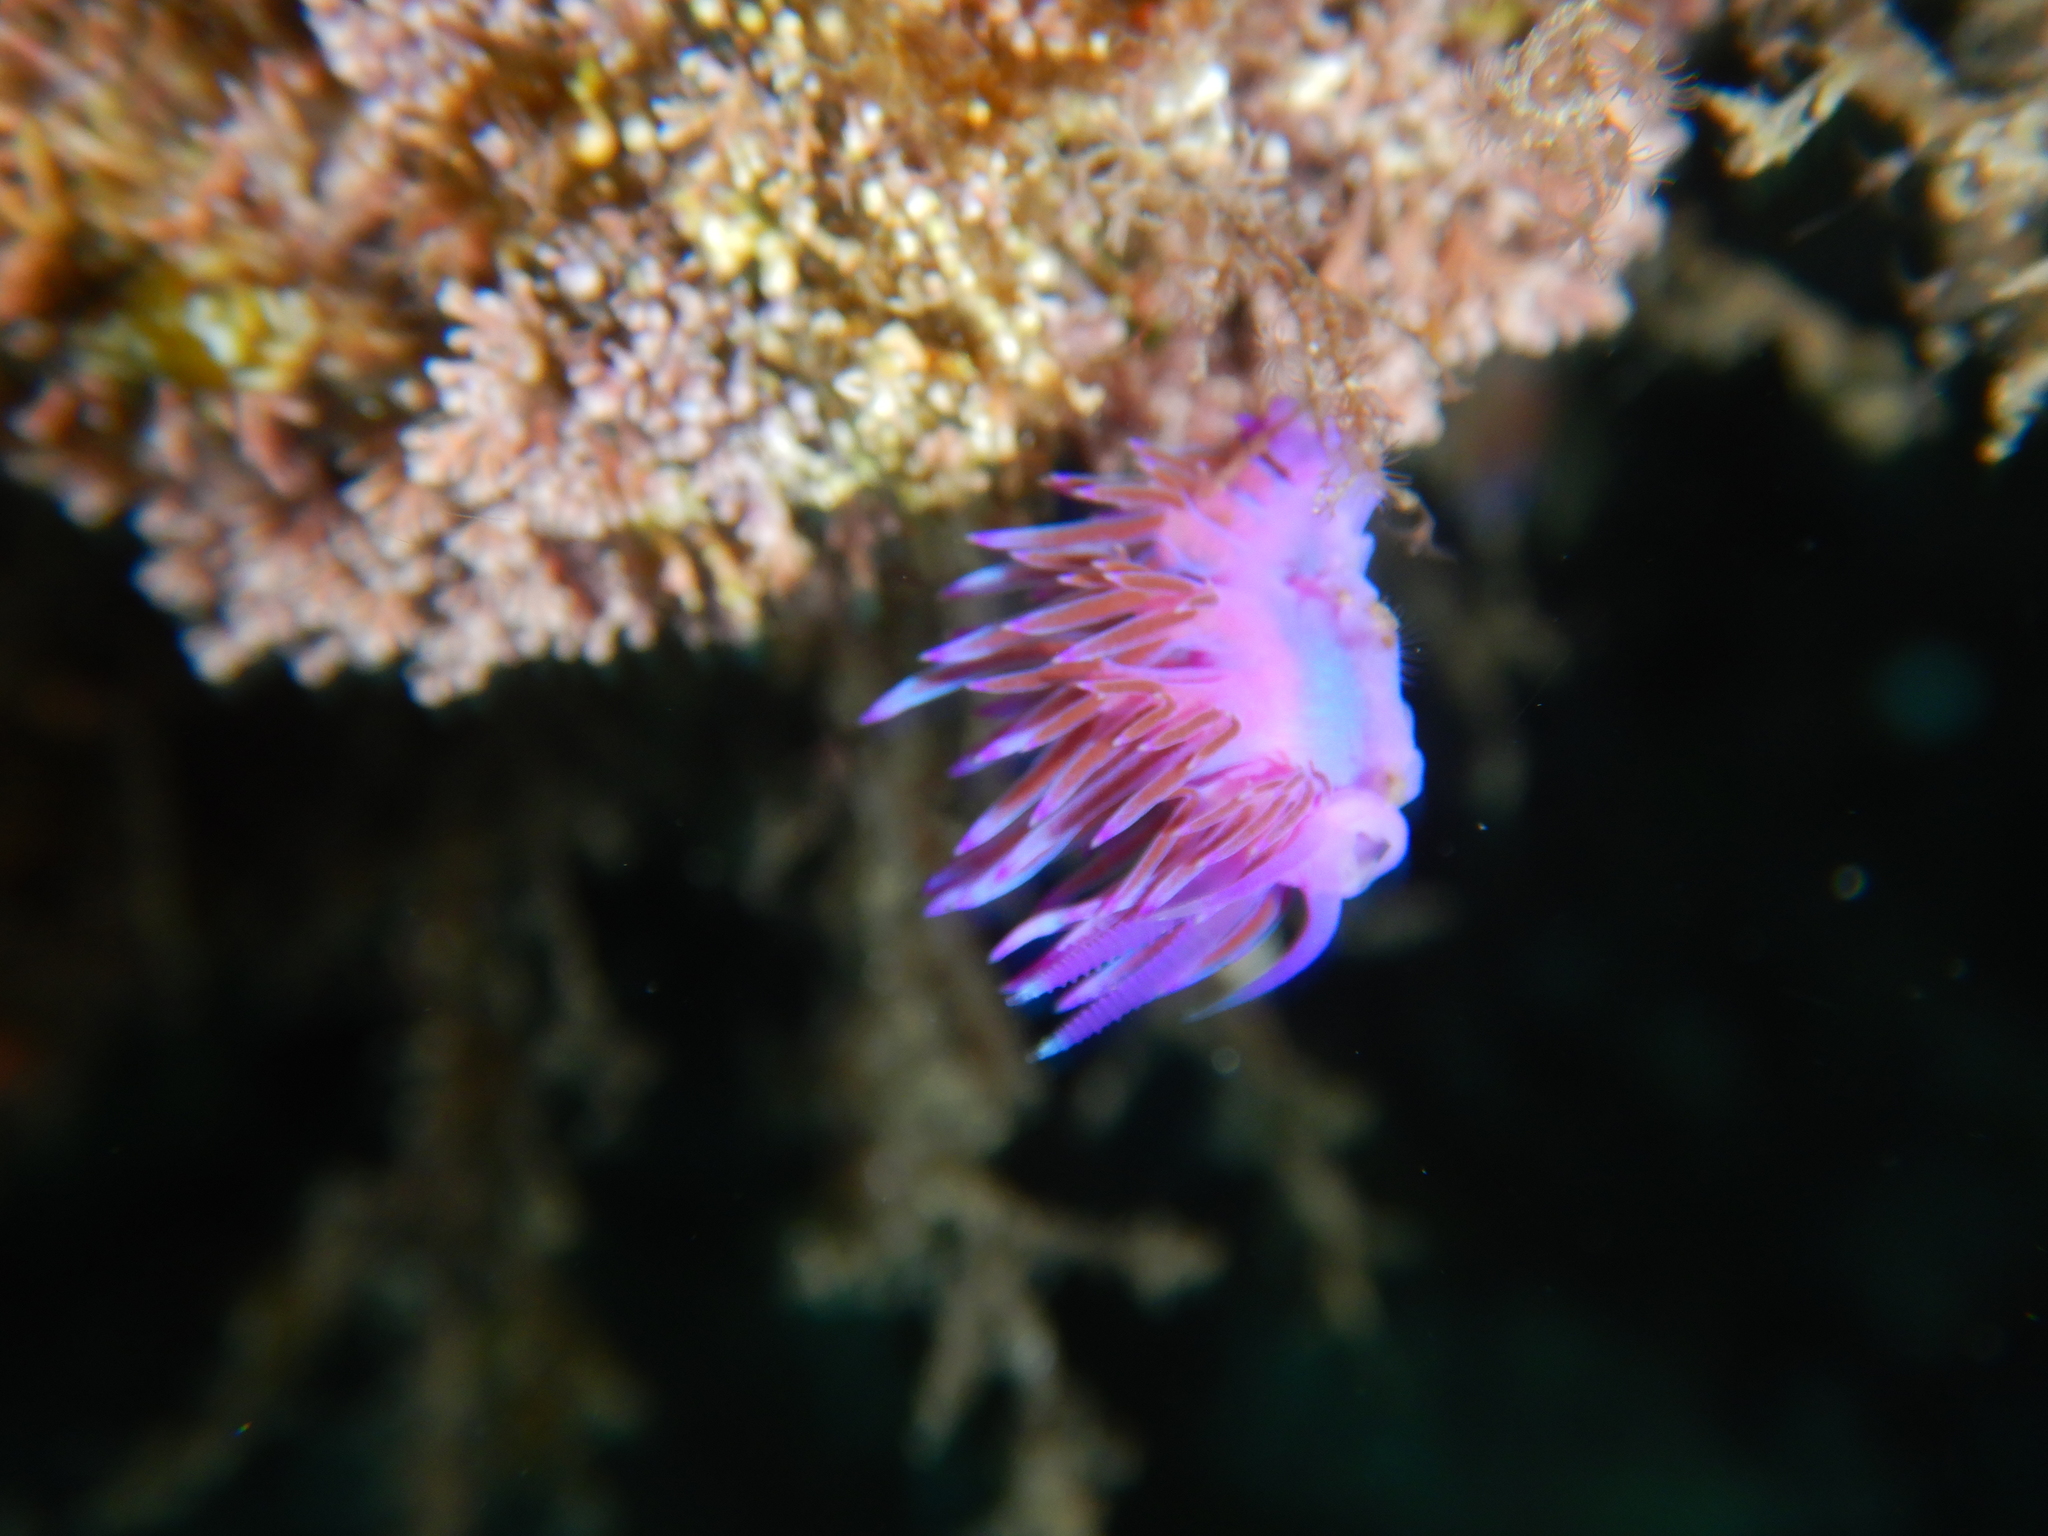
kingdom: Animalia
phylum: Mollusca
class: Gastropoda
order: Nudibranchia
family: Flabellinidae
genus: Flabellina
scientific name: Flabellina affinis
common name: Mediterranean violet aeolid
